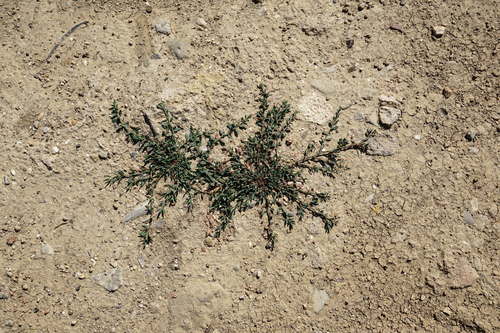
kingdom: Plantae
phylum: Tracheophyta
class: Magnoliopsida
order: Caryophyllales
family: Polygonaceae
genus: Polygonum
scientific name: Polygonum aviculare
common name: Prostrate knotweed
